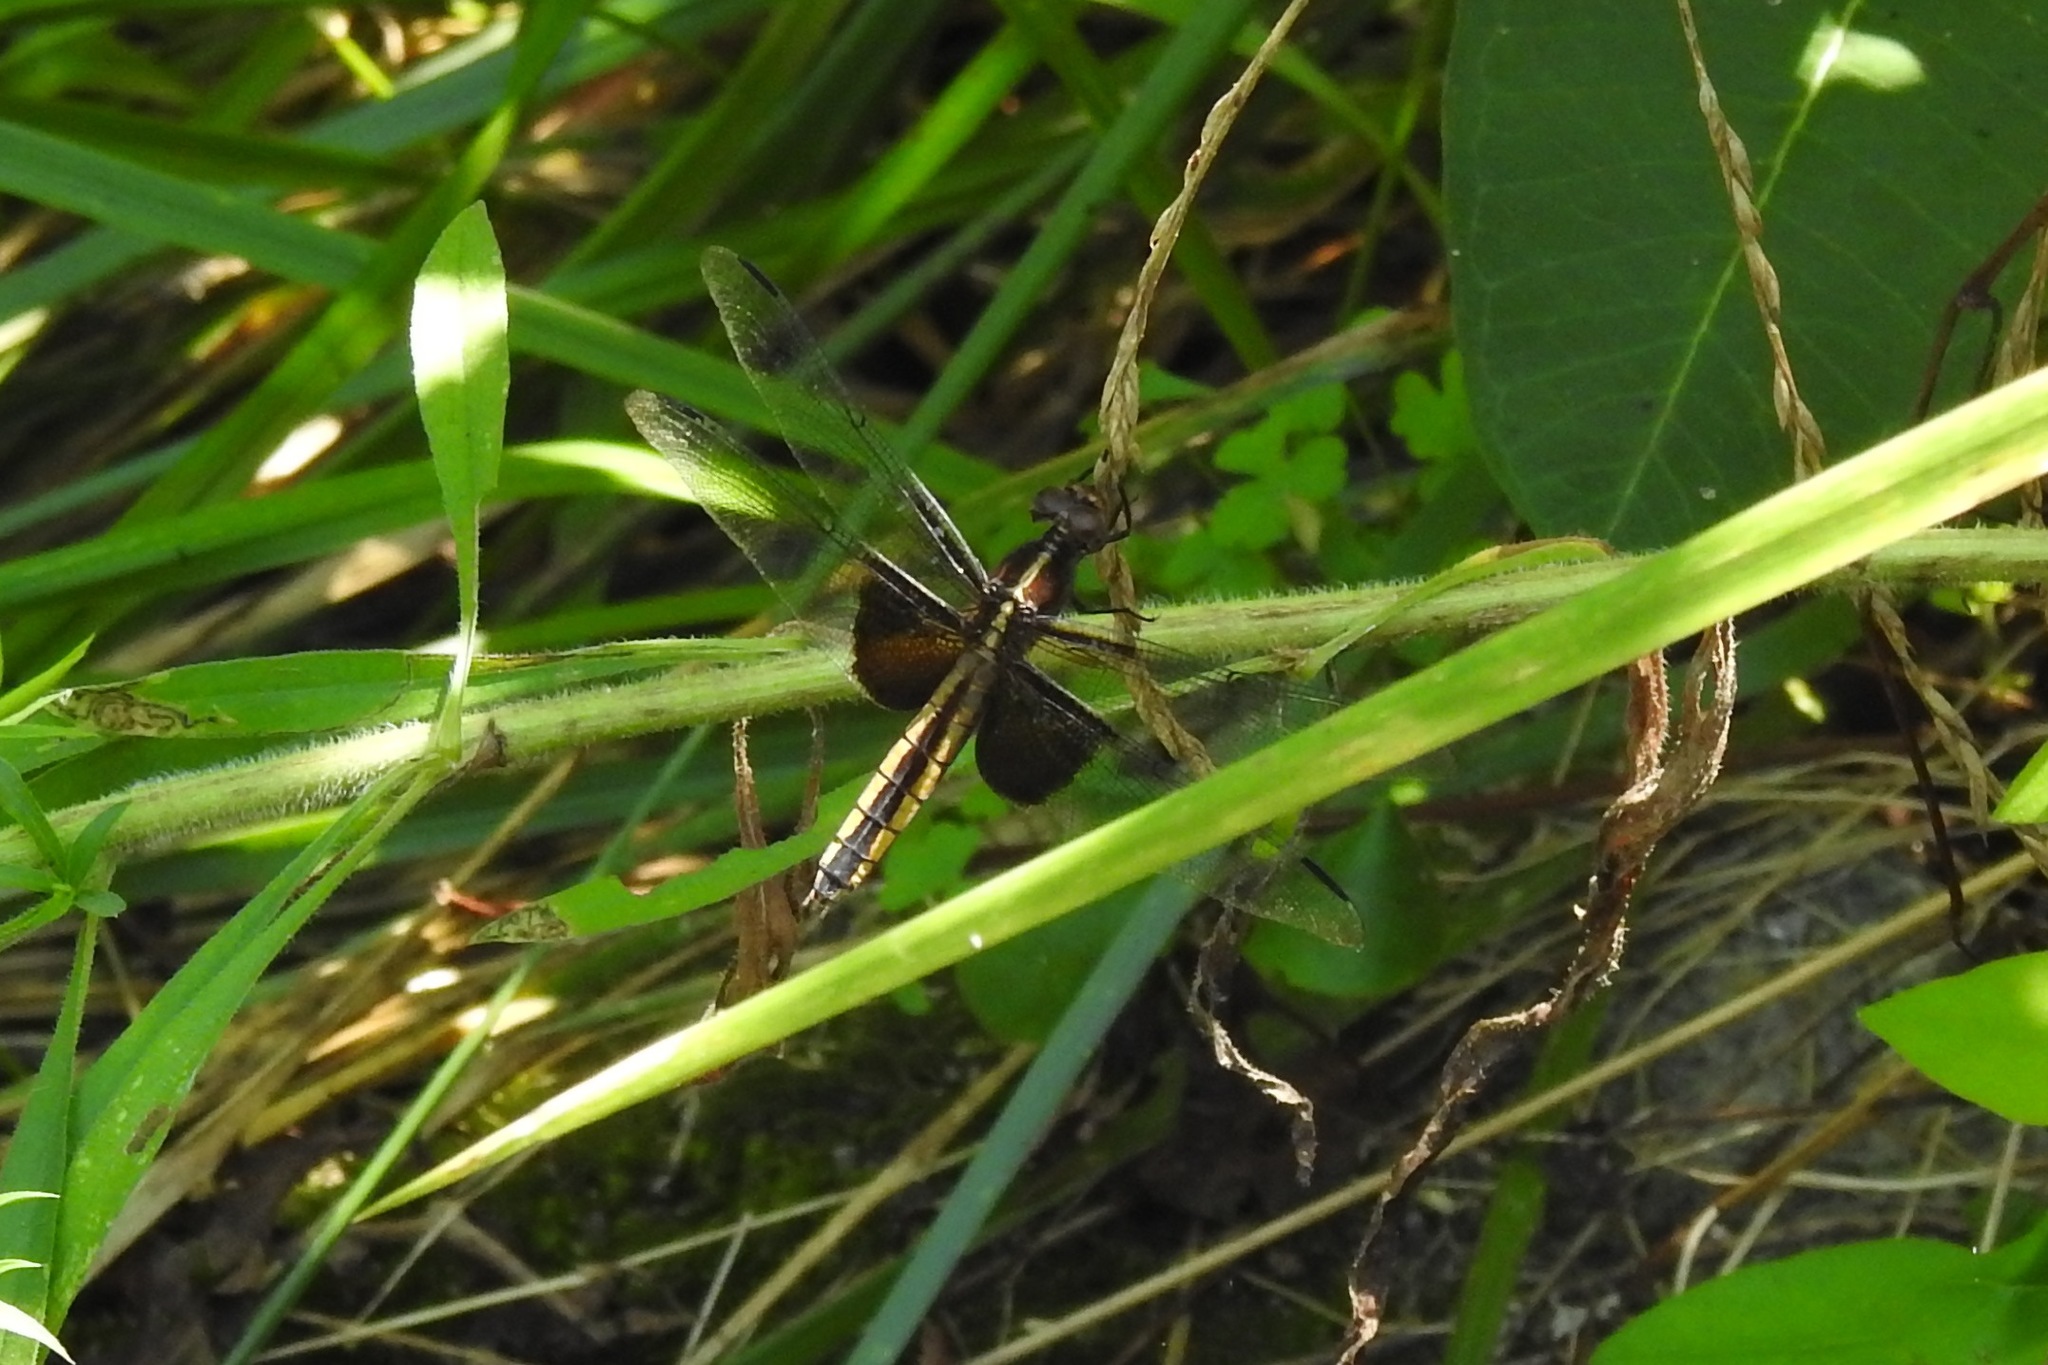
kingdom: Animalia
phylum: Arthropoda
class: Insecta
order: Odonata
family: Libellulidae
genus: Libellula
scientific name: Libellula luctuosa
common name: Widow skimmer
